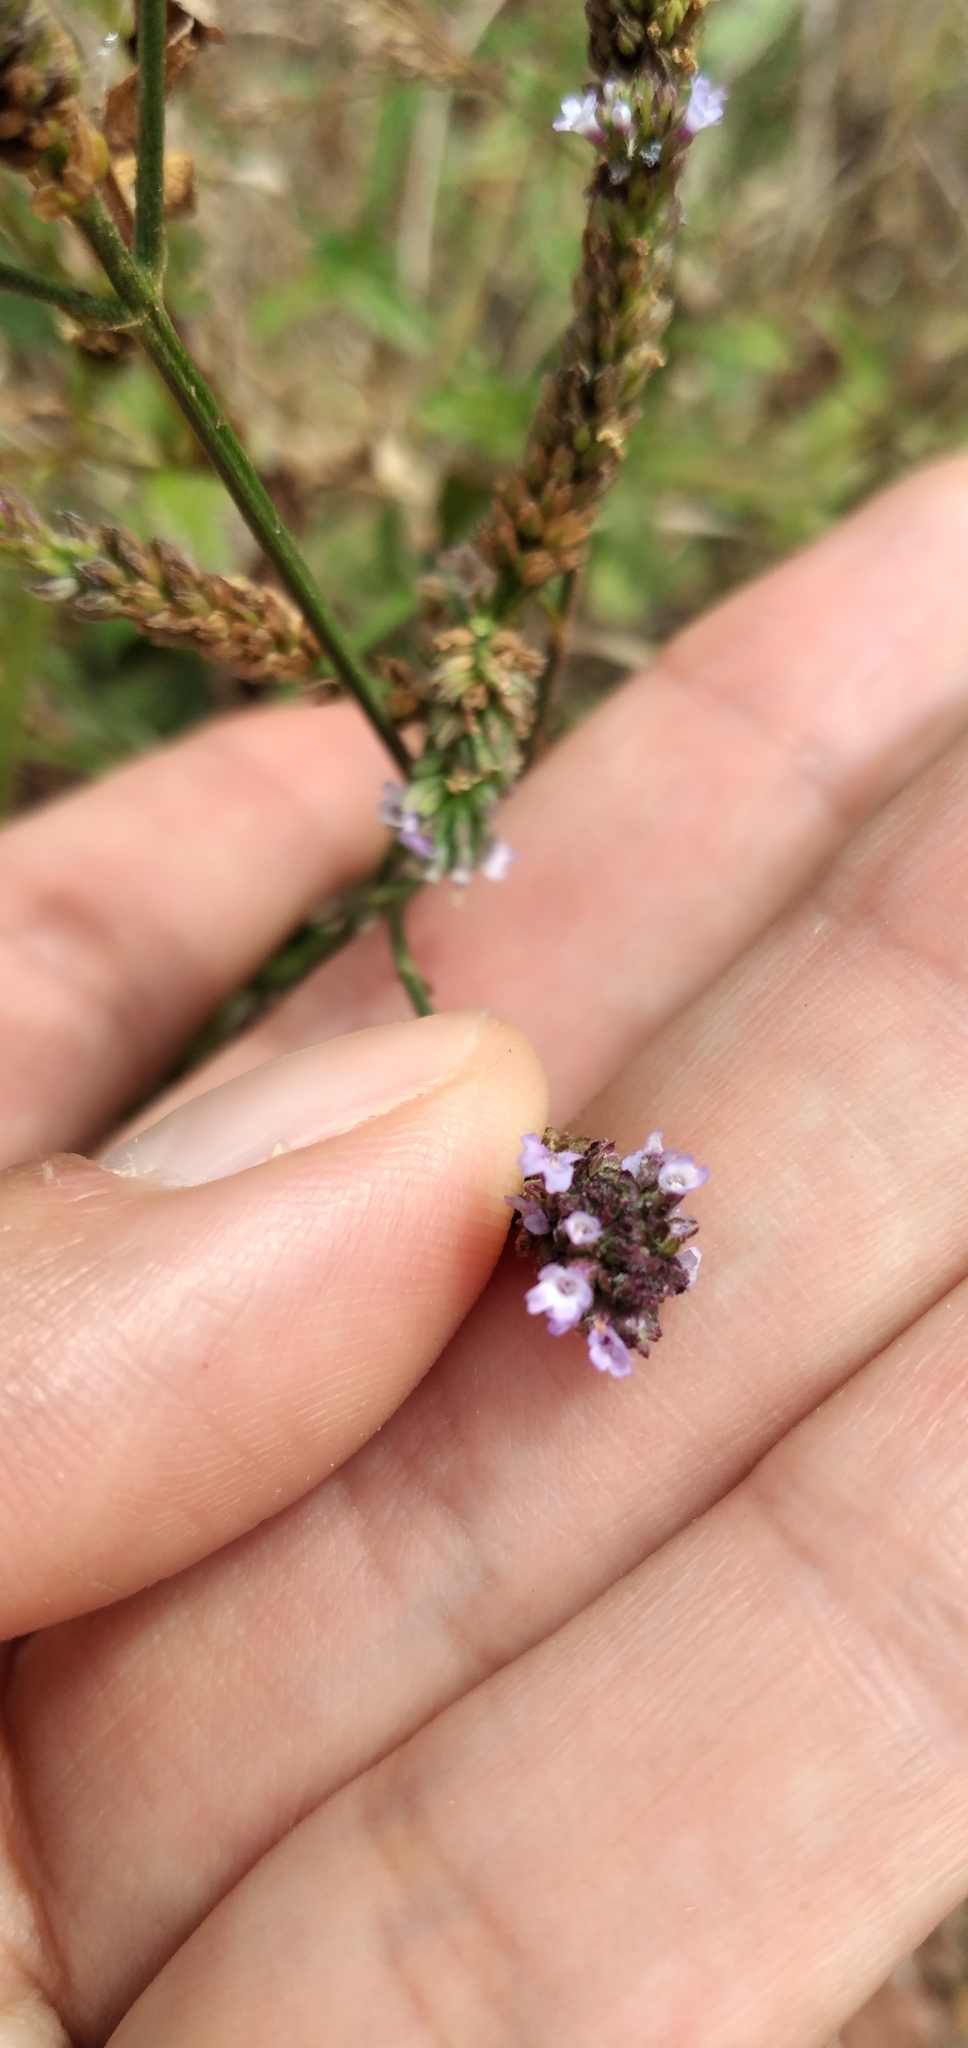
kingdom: Plantae
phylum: Tracheophyta
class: Magnoliopsida
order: Lamiales
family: Verbenaceae
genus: Verbena
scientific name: Verbena hispida
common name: Hairy vervain
